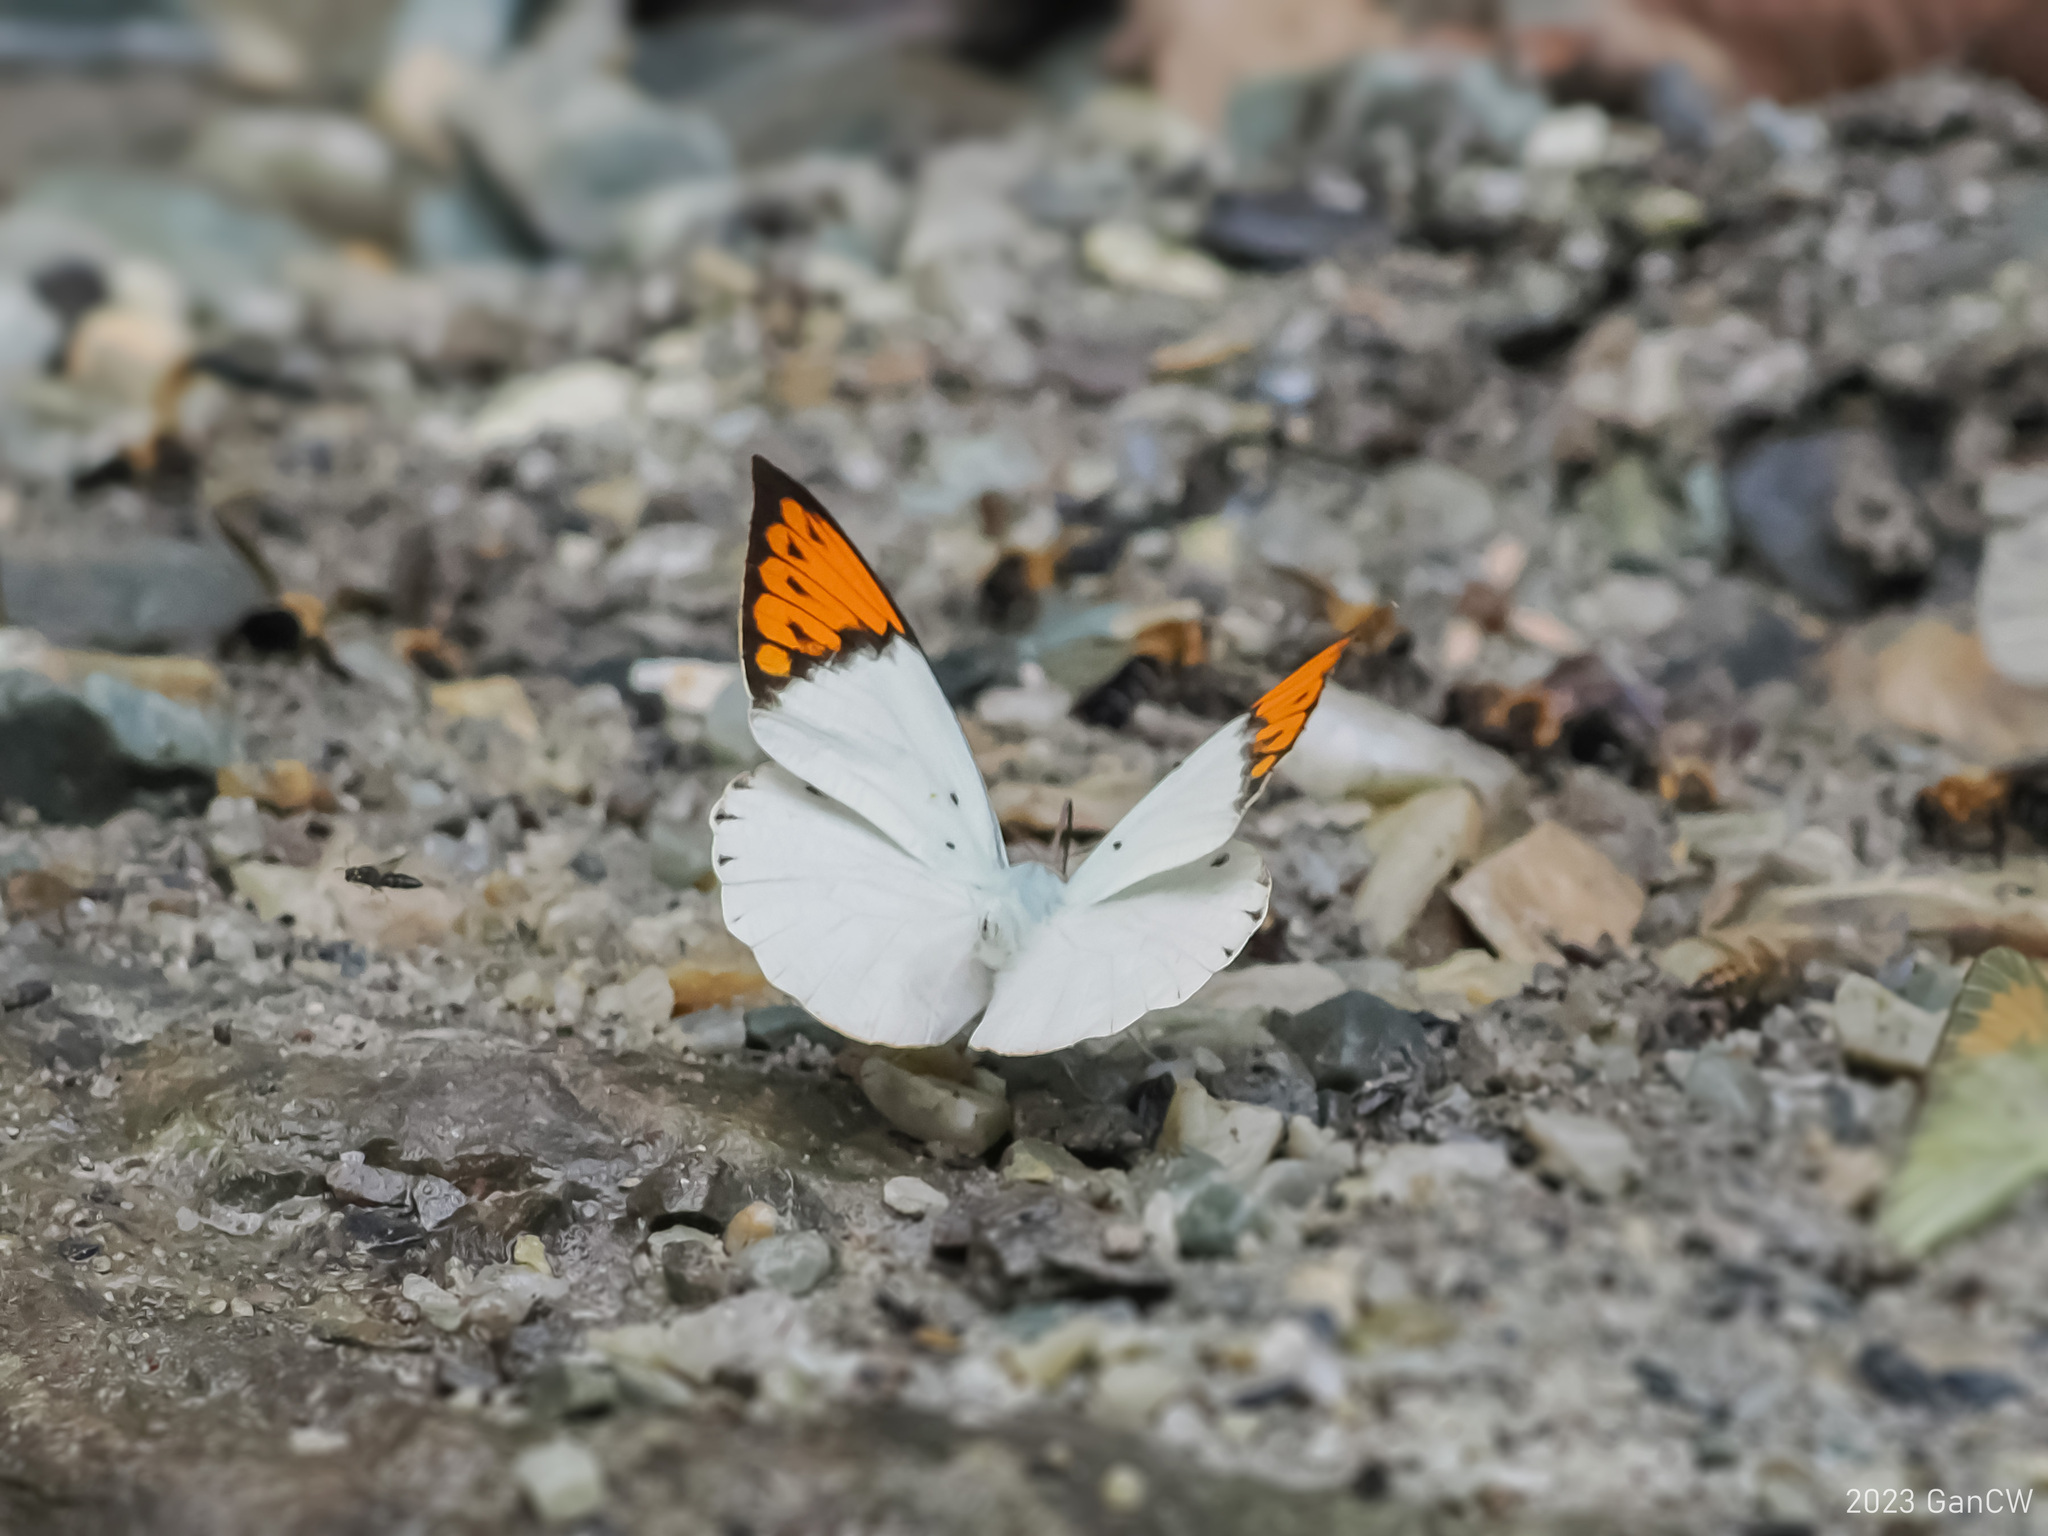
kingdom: Animalia
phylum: Arthropoda
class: Insecta
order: Lepidoptera
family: Pieridae
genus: Hebomoia
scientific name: Hebomoia glaucippe
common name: Great orange tip
